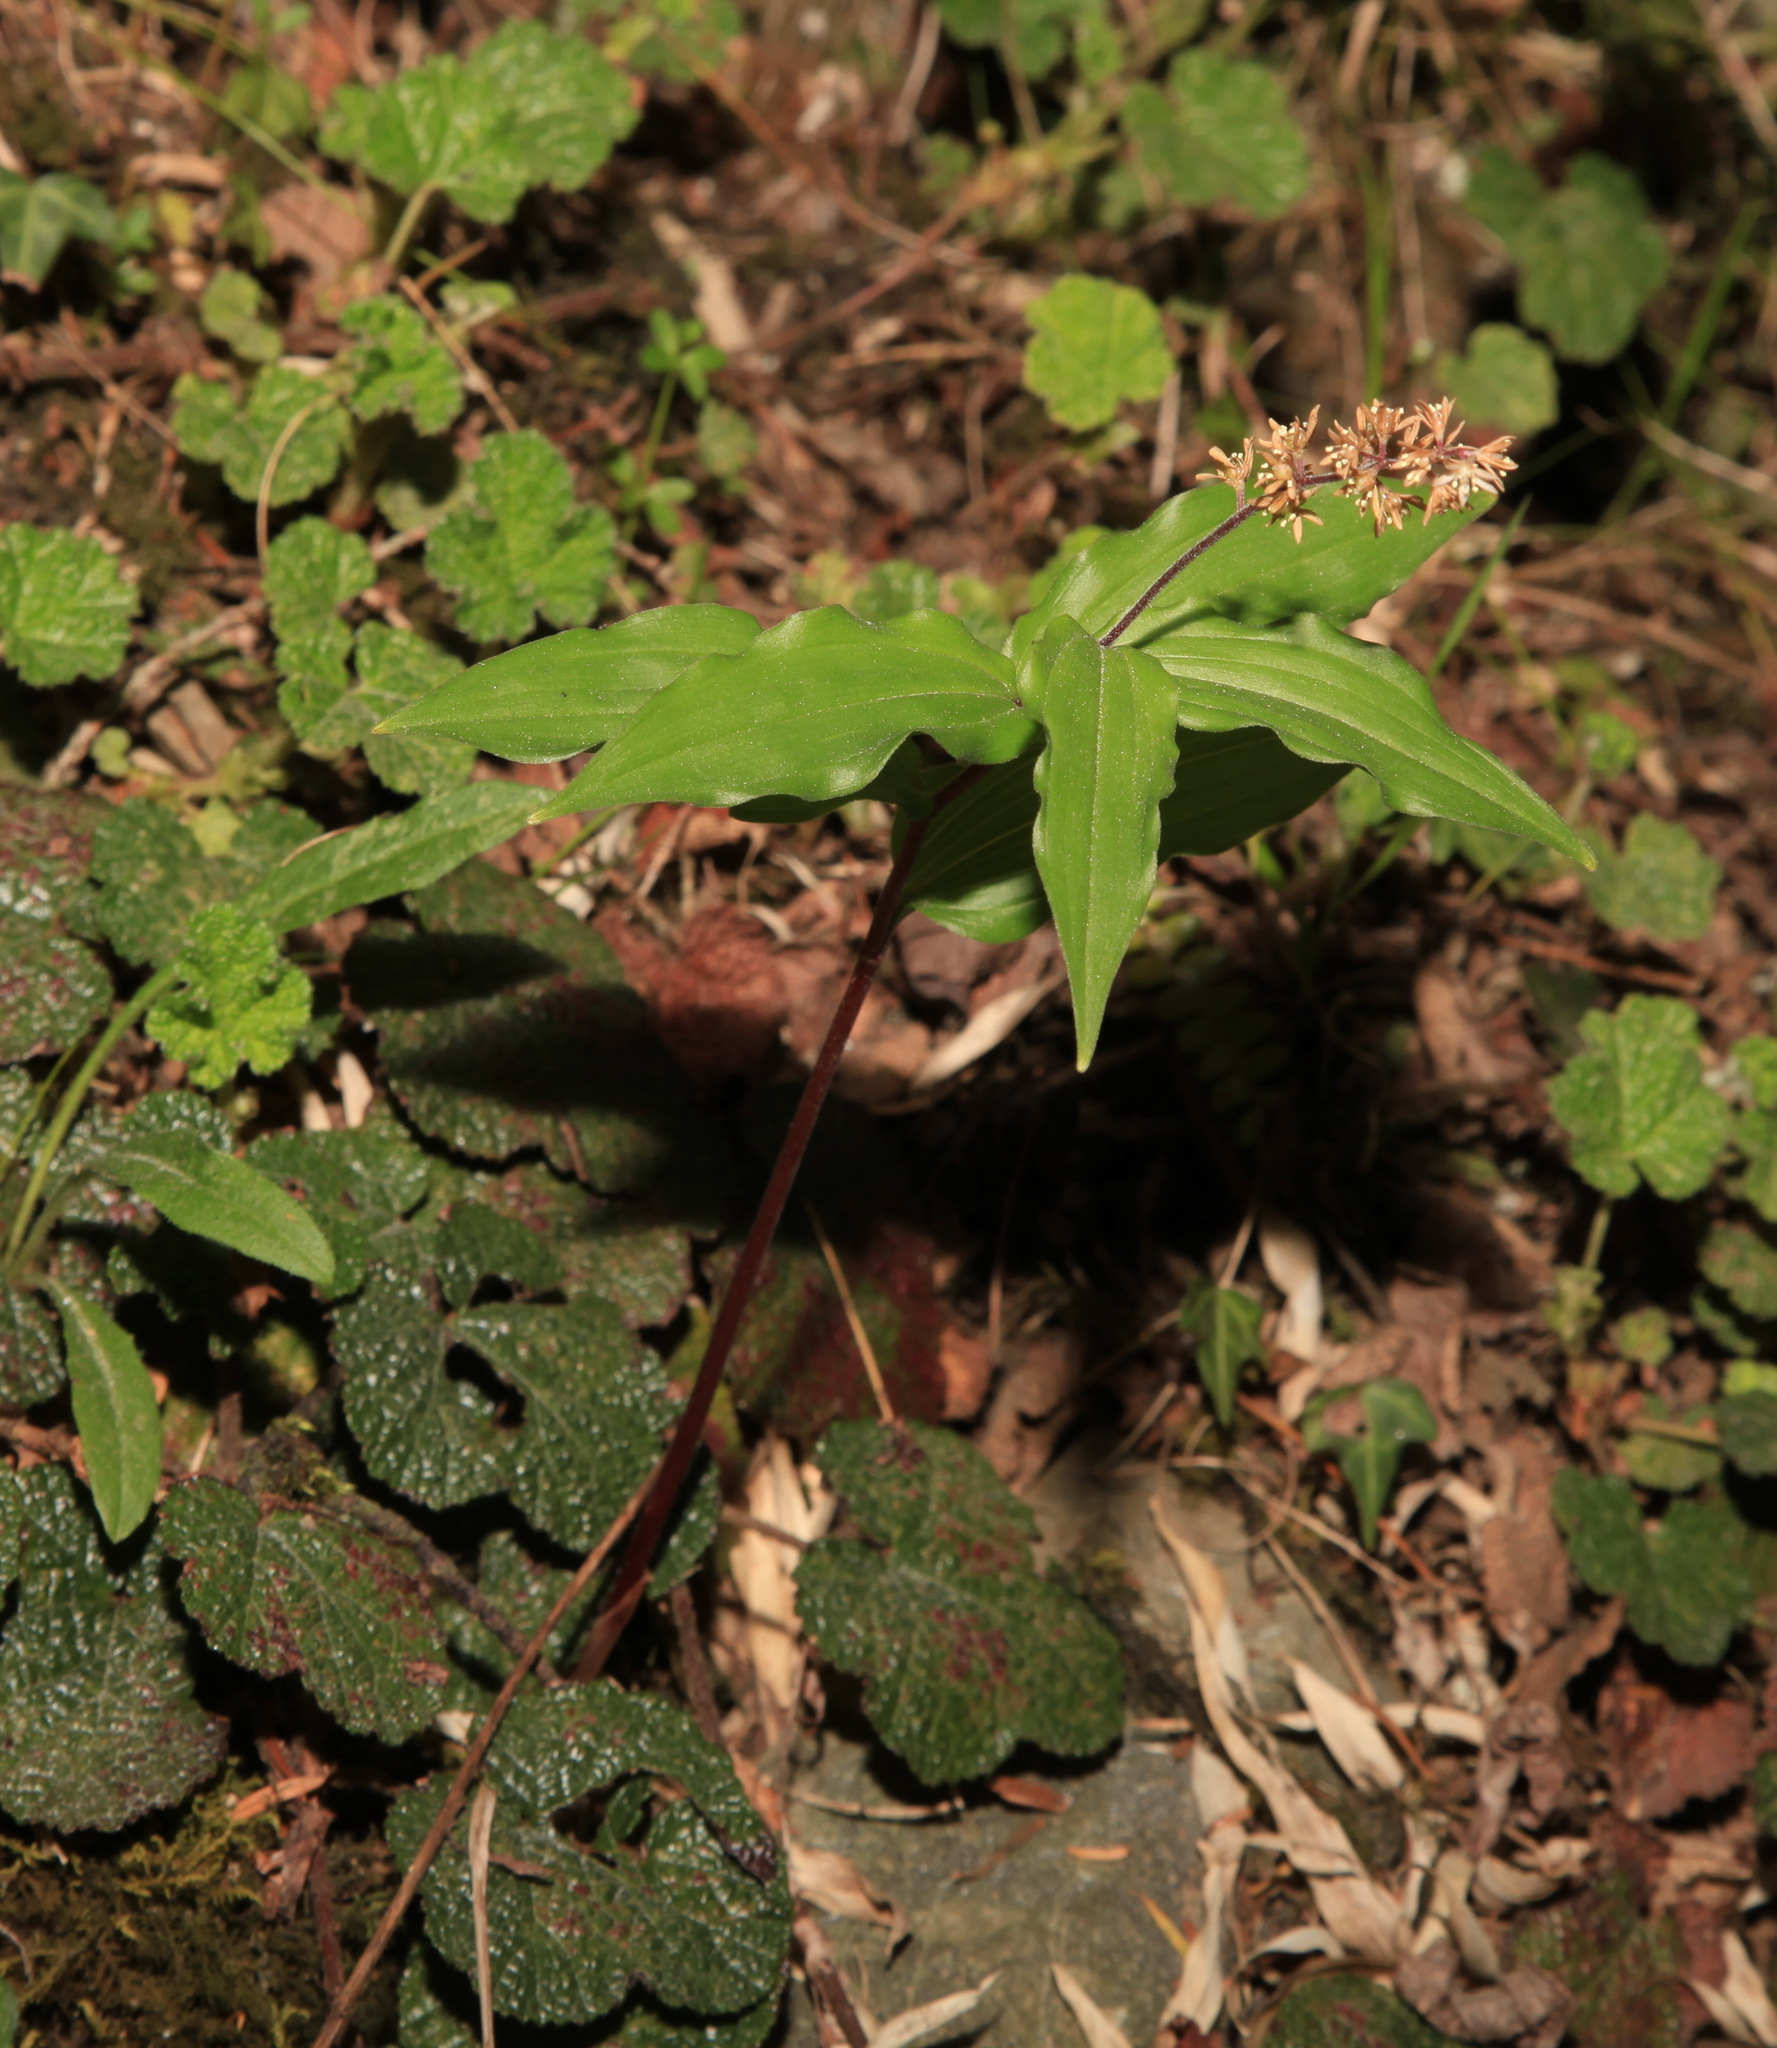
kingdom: Plantae
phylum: Tracheophyta
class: Liliopsida
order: Asparagales
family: Asparagaceae
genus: Maianthemum
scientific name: Maianthemum formosanum
